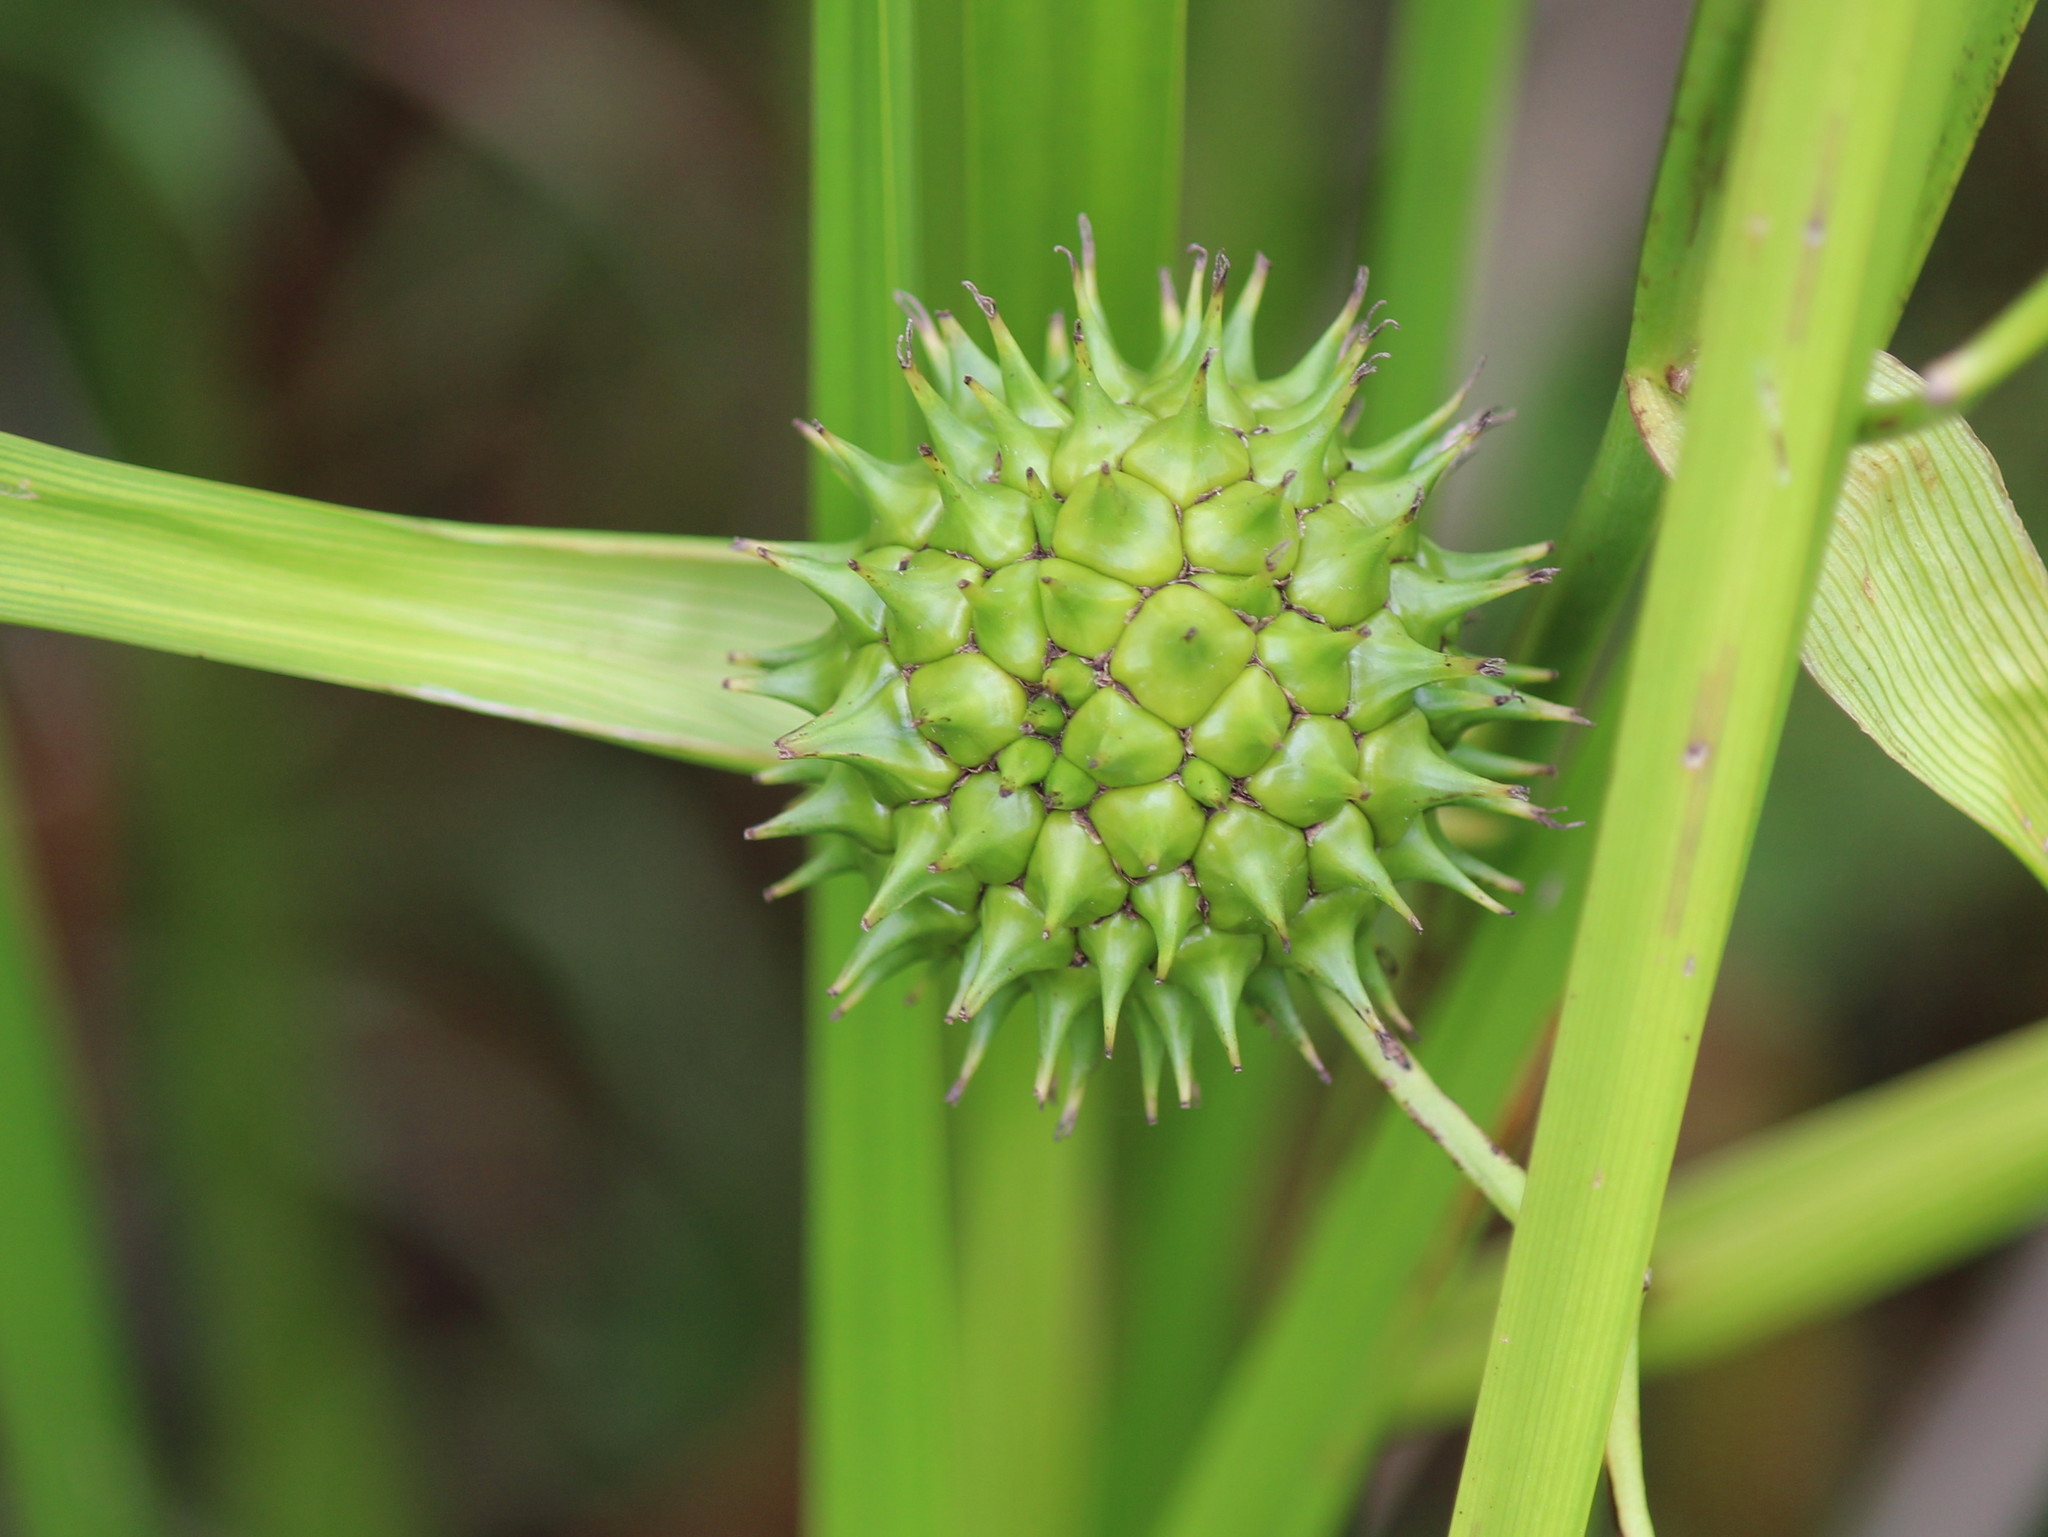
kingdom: Plantae
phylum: Tracheophyta
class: Liliopsida
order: Poales
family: Typhaceae
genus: Sparganium
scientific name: Sparganium eurycarpum
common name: Broad-fruited burreed
